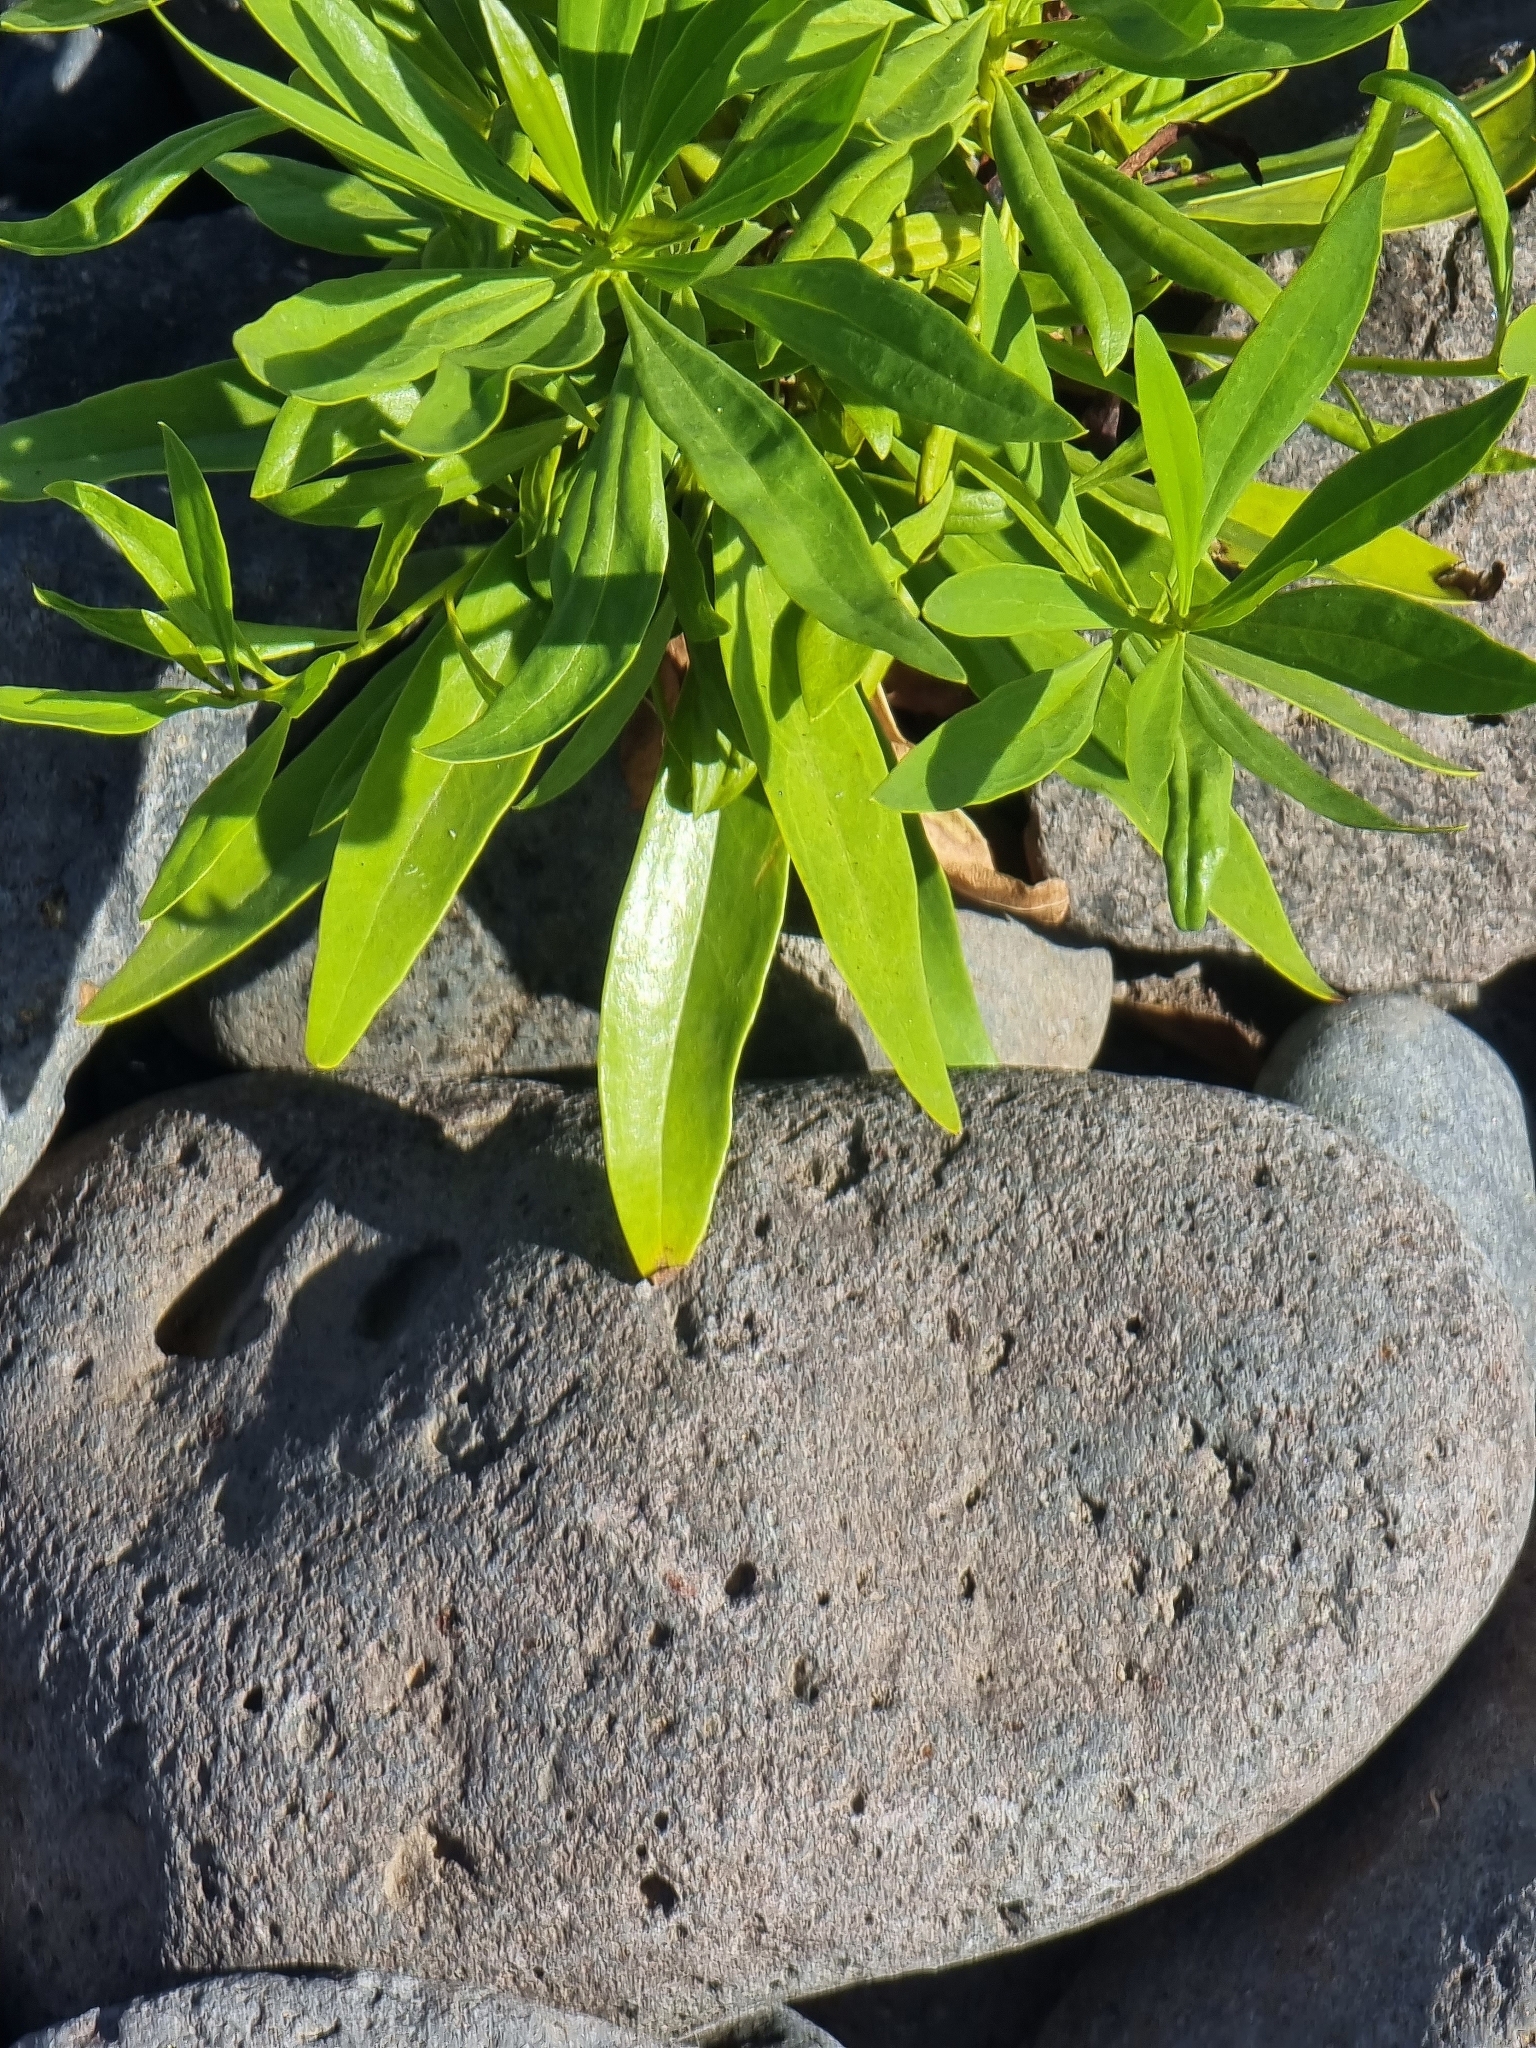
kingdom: Plantae
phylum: Tracheophyta
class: Magnoliopsida
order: Lamiales
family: Plantaginaceae
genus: Globularia
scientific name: Globularia salicina
